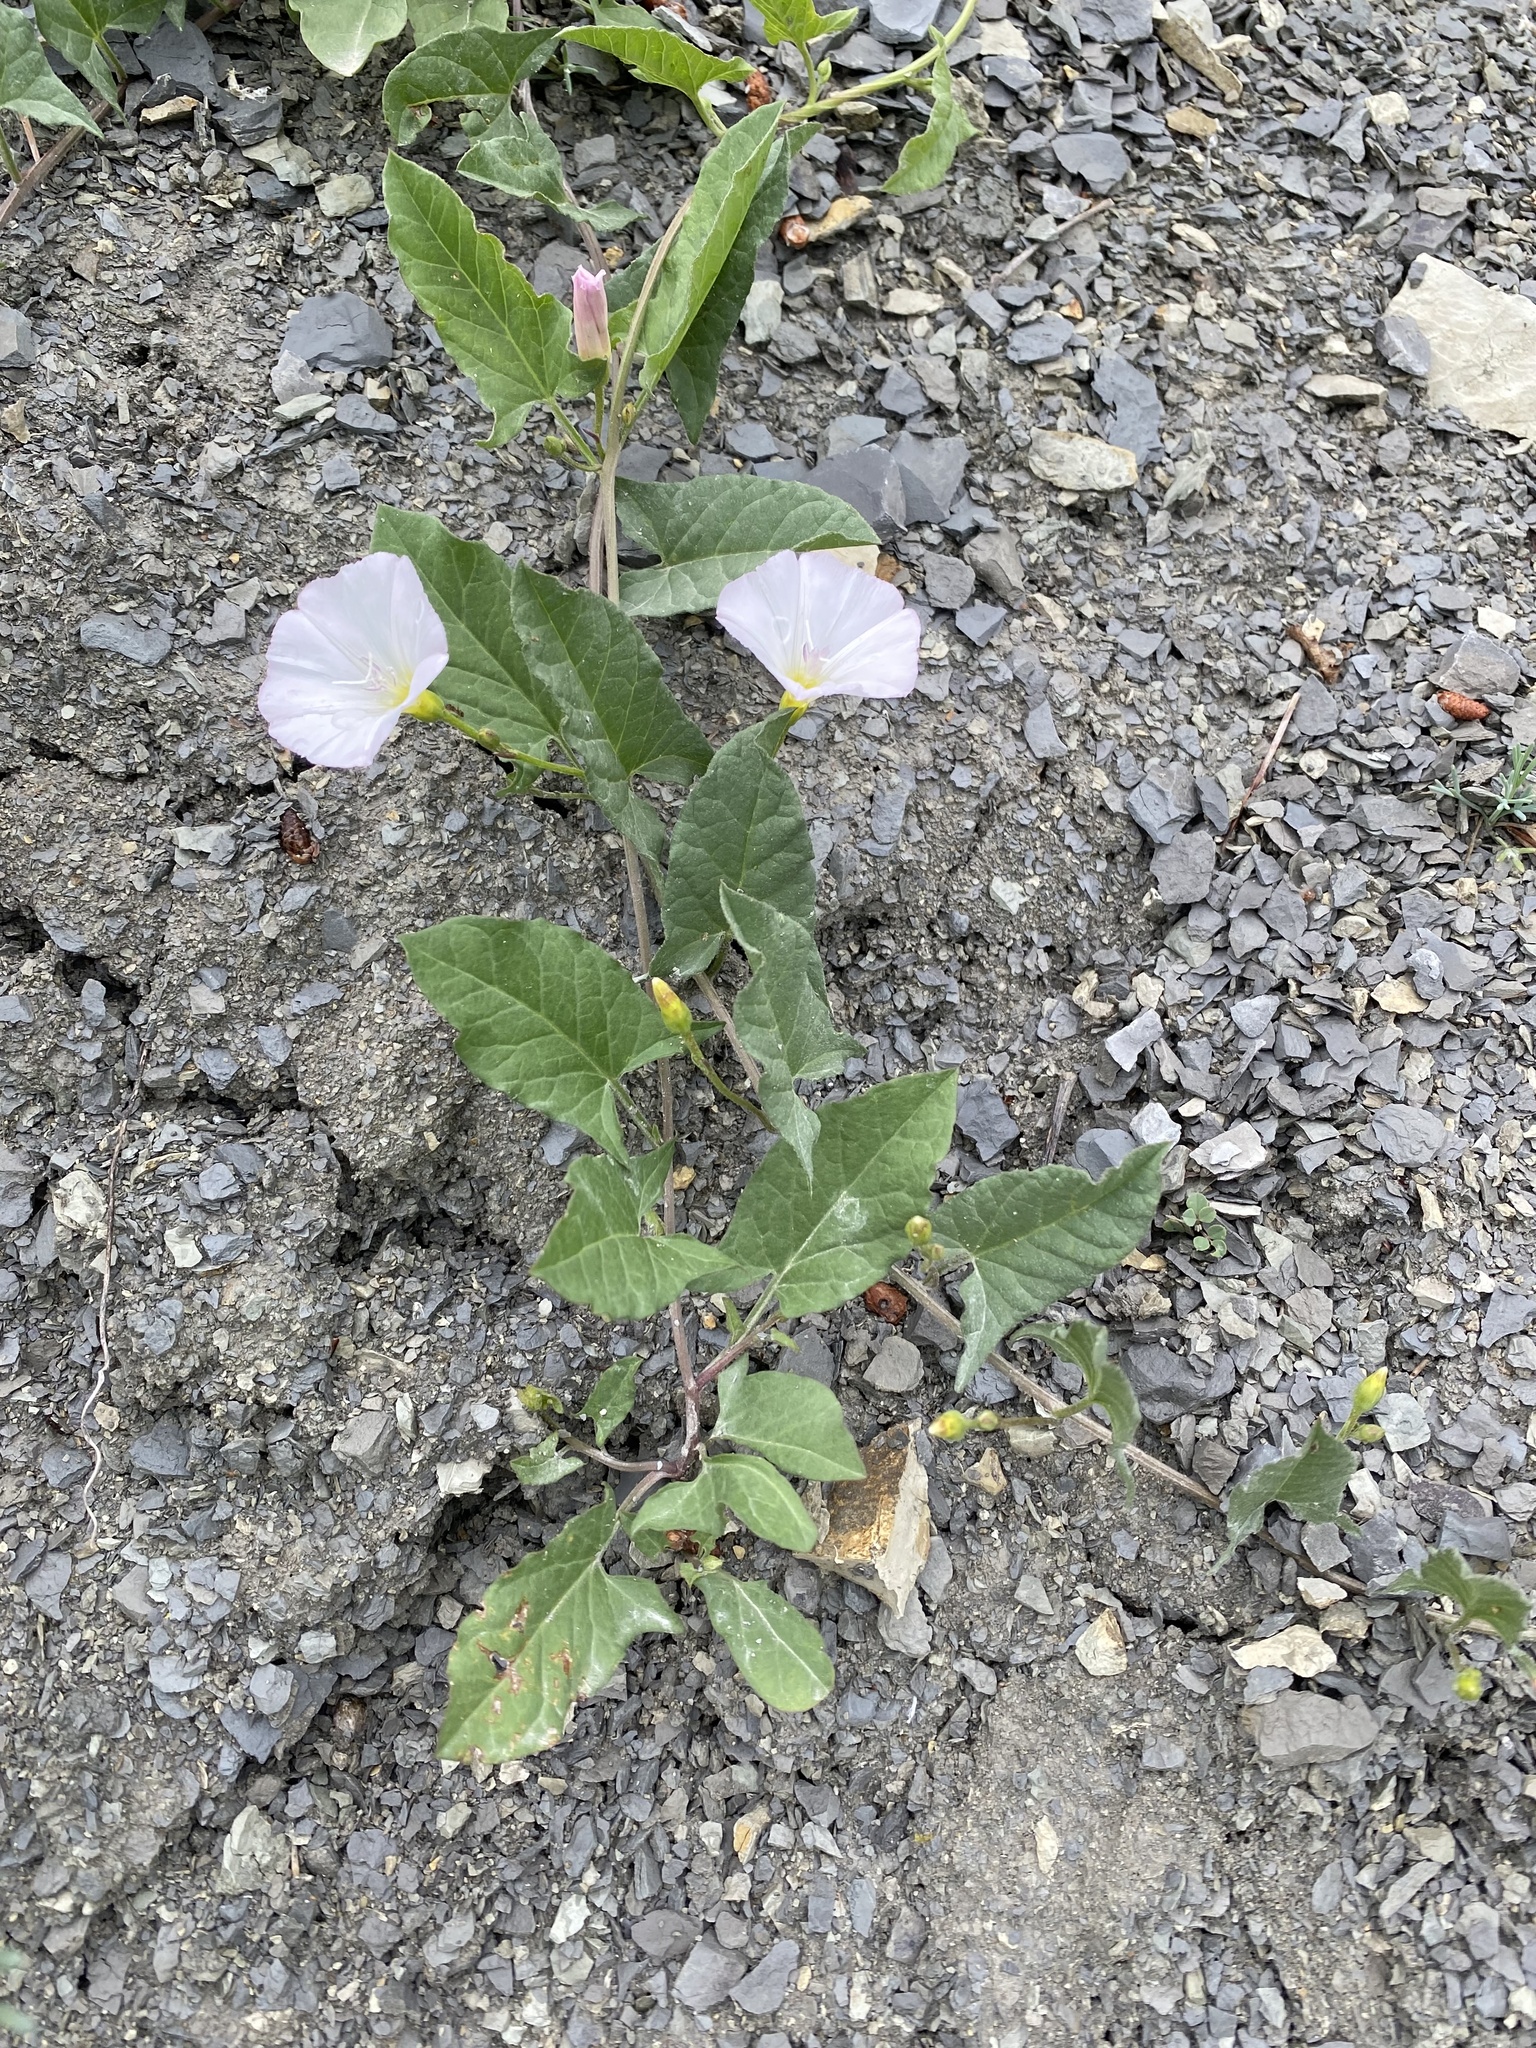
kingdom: Plantae
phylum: Tracheophyta
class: Magnoliopsida
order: Solanales
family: Convolvulaceae
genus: Convolvulus
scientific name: Convolvulus arvensis
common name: Field bindweed
